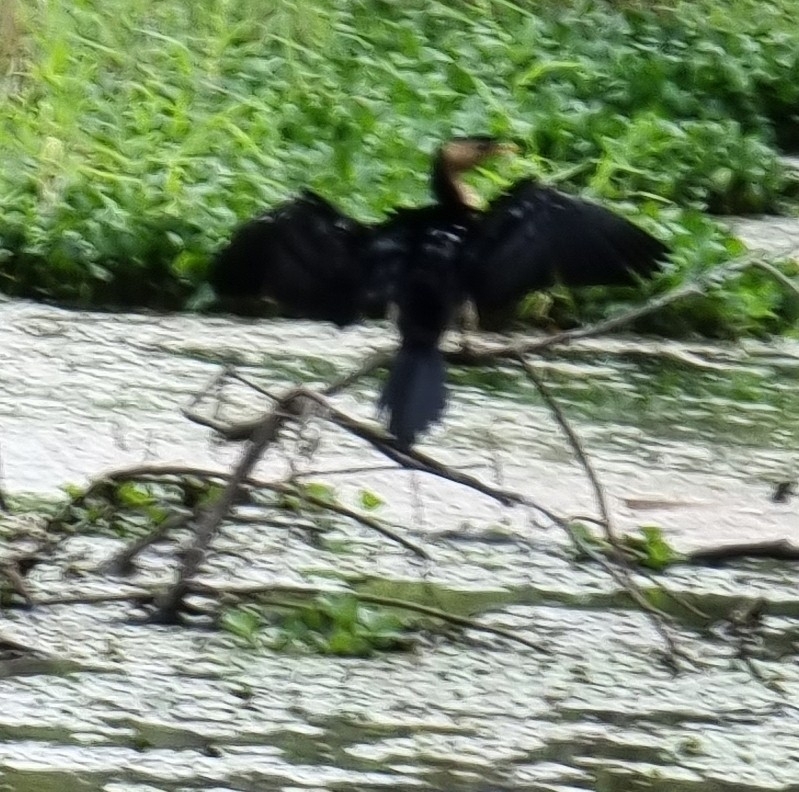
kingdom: Animalia
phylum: Chordata
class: Aves
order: Suliformes
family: Phalacrocoracidae
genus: Microcarbo
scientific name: Microcarbo melanoleucos
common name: Little pied cormorant
